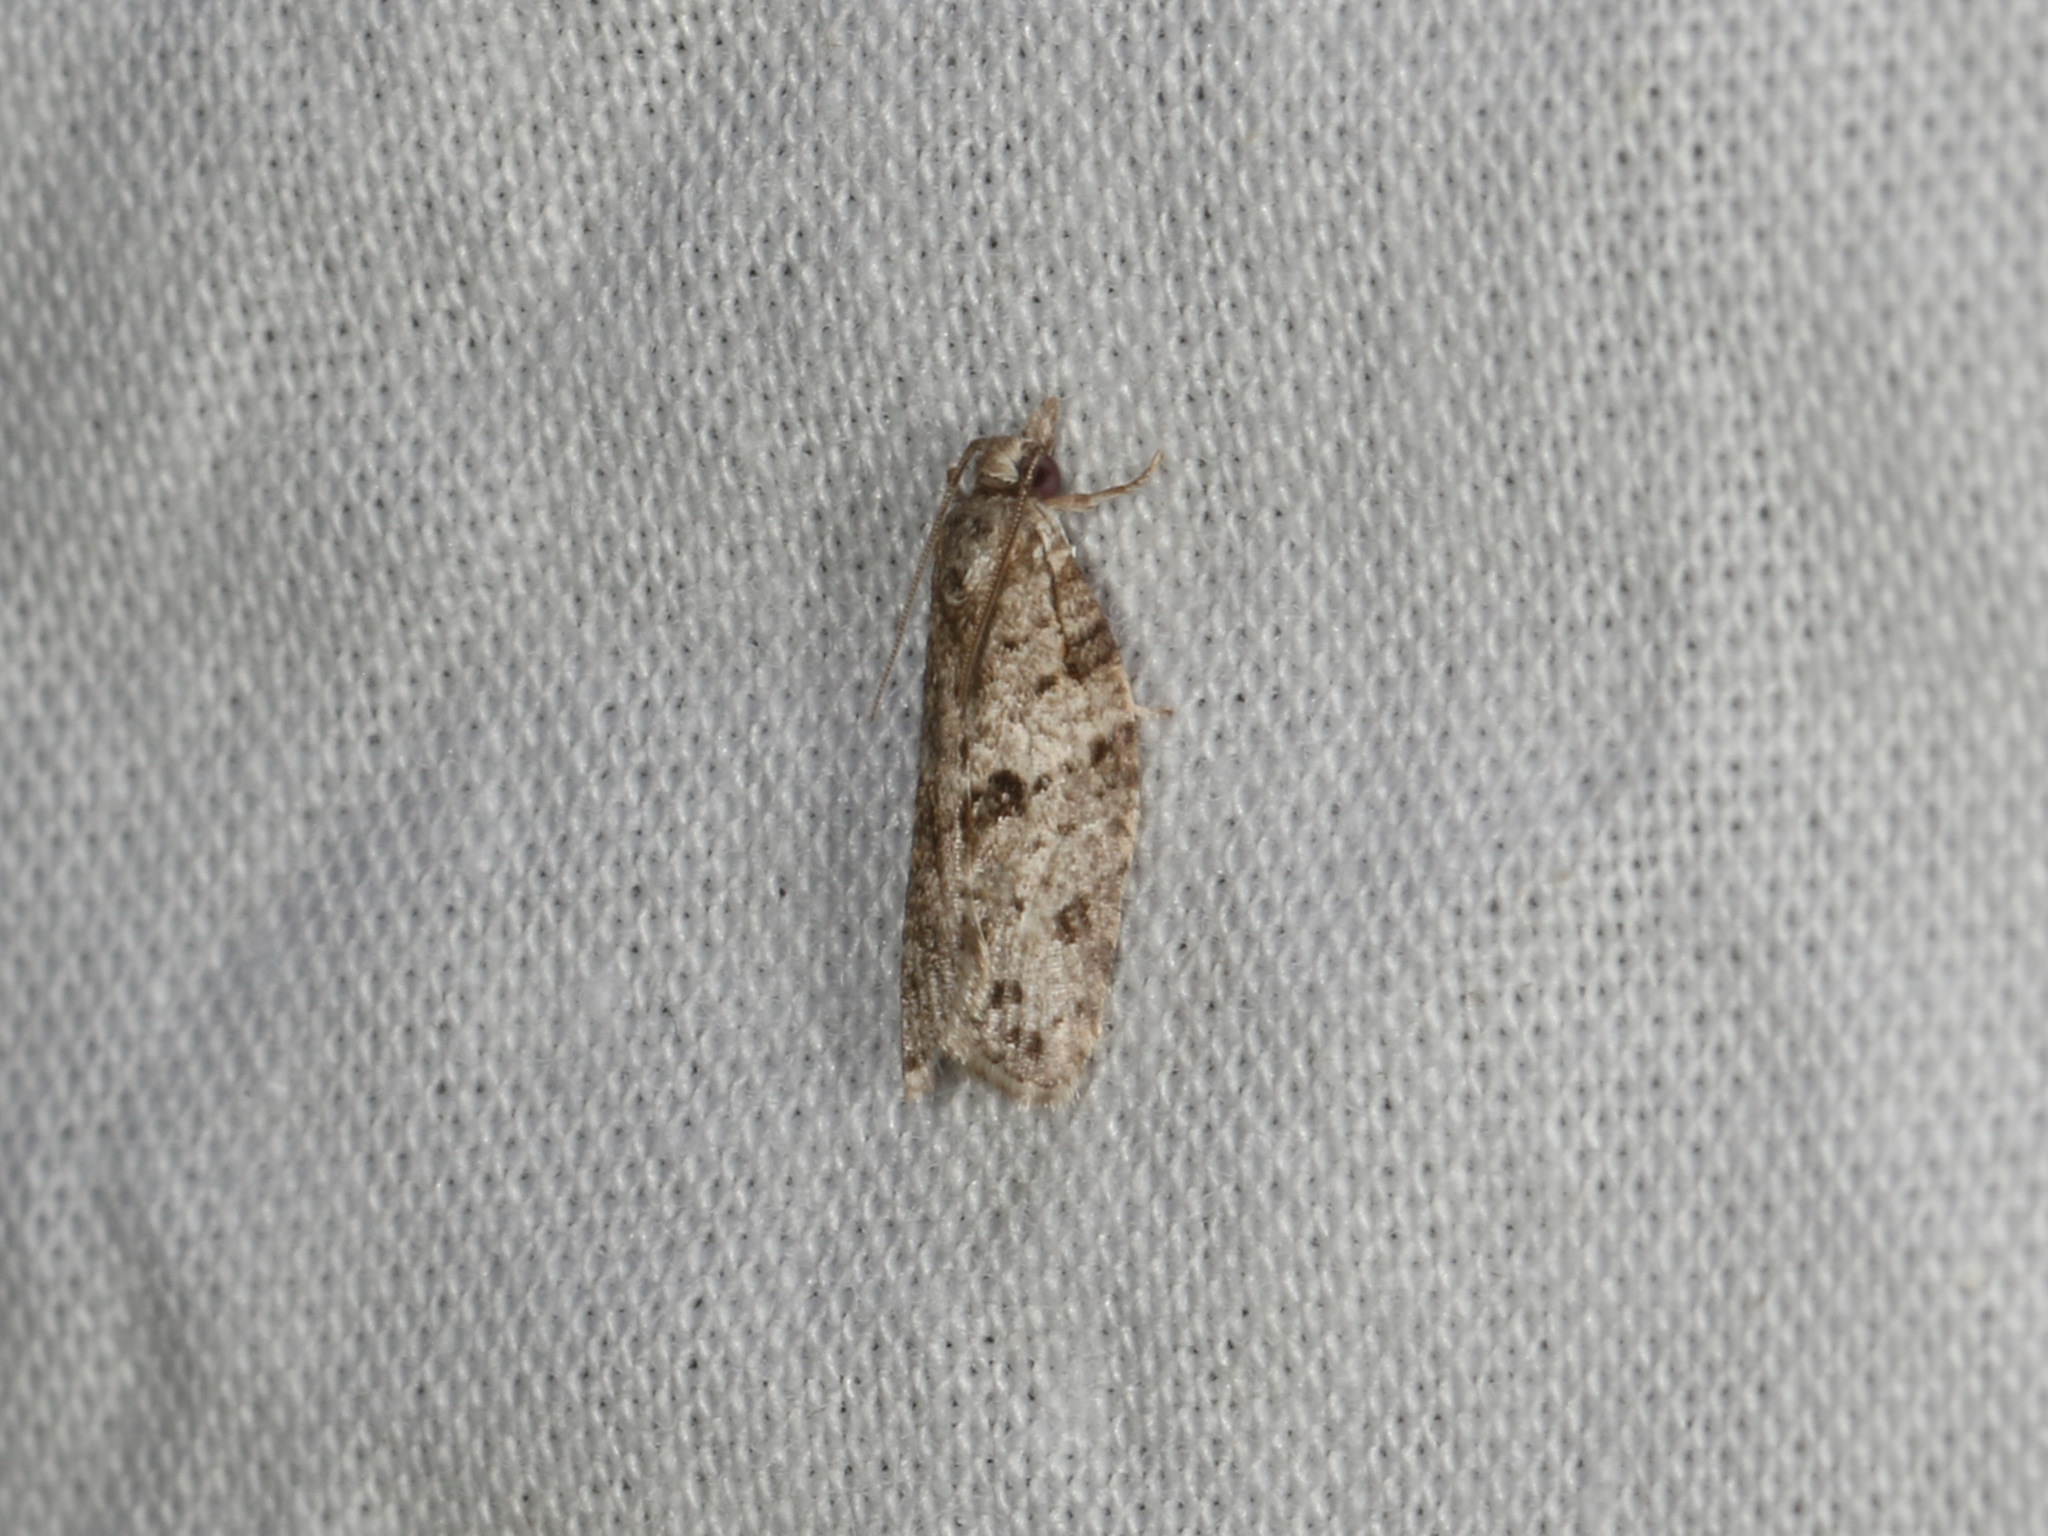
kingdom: Animalia
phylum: Arthropoda
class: Insecta
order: Lepidoptera
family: Tortricidae
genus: Isotenes
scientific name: Isotenes miserana
